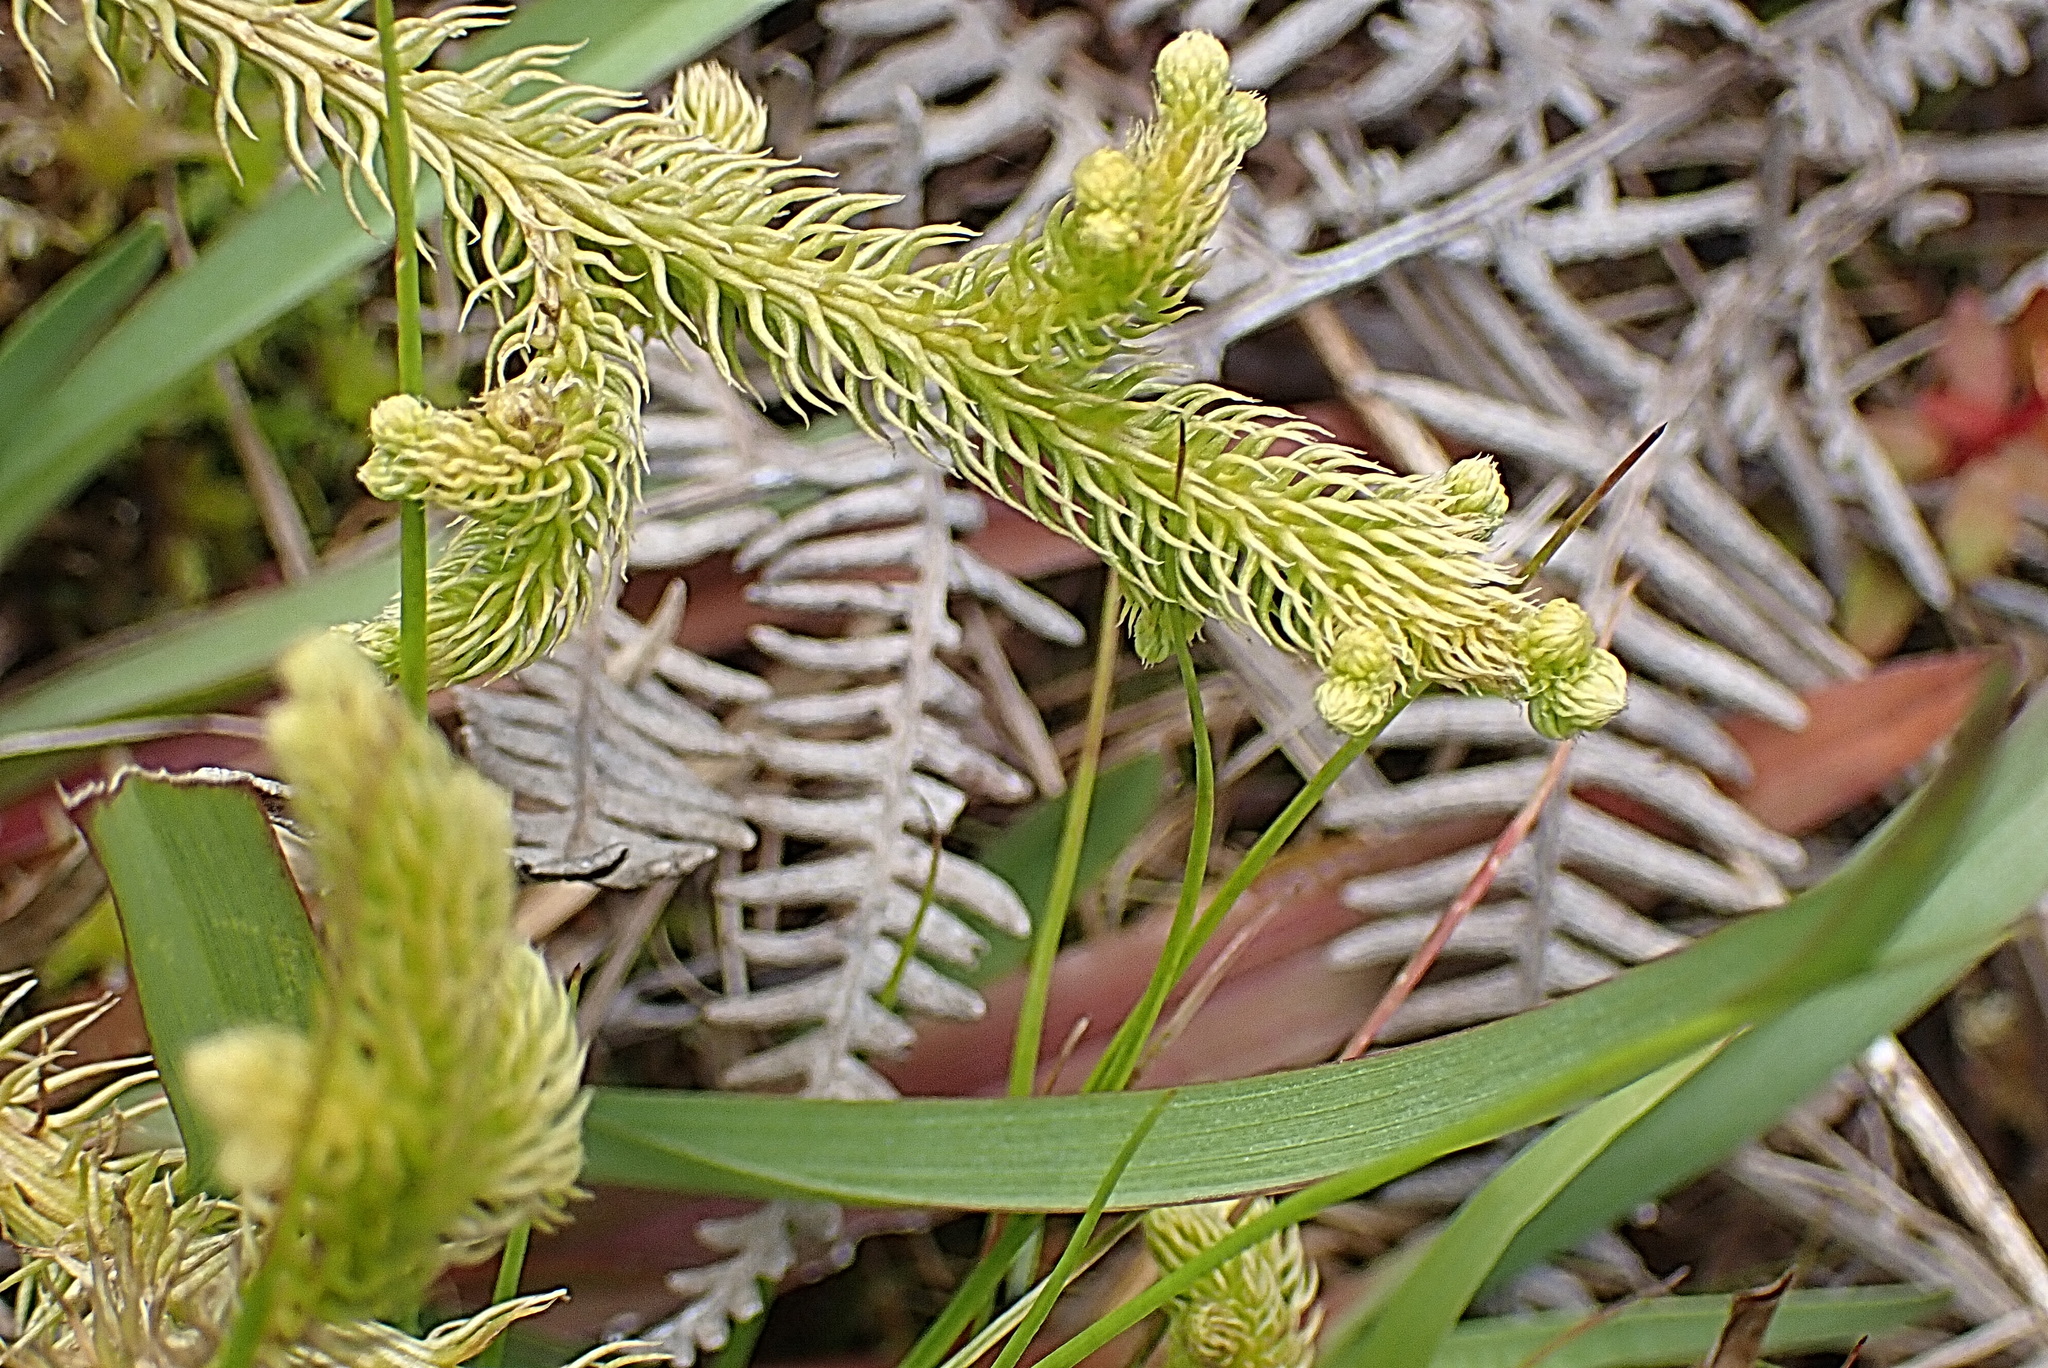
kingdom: Plantae
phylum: Tracheophyta
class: Lycopodiopsida
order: Lycopodiales
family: Lycopodiaceae
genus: Palhinhaea
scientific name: Palhinhaea cernua
